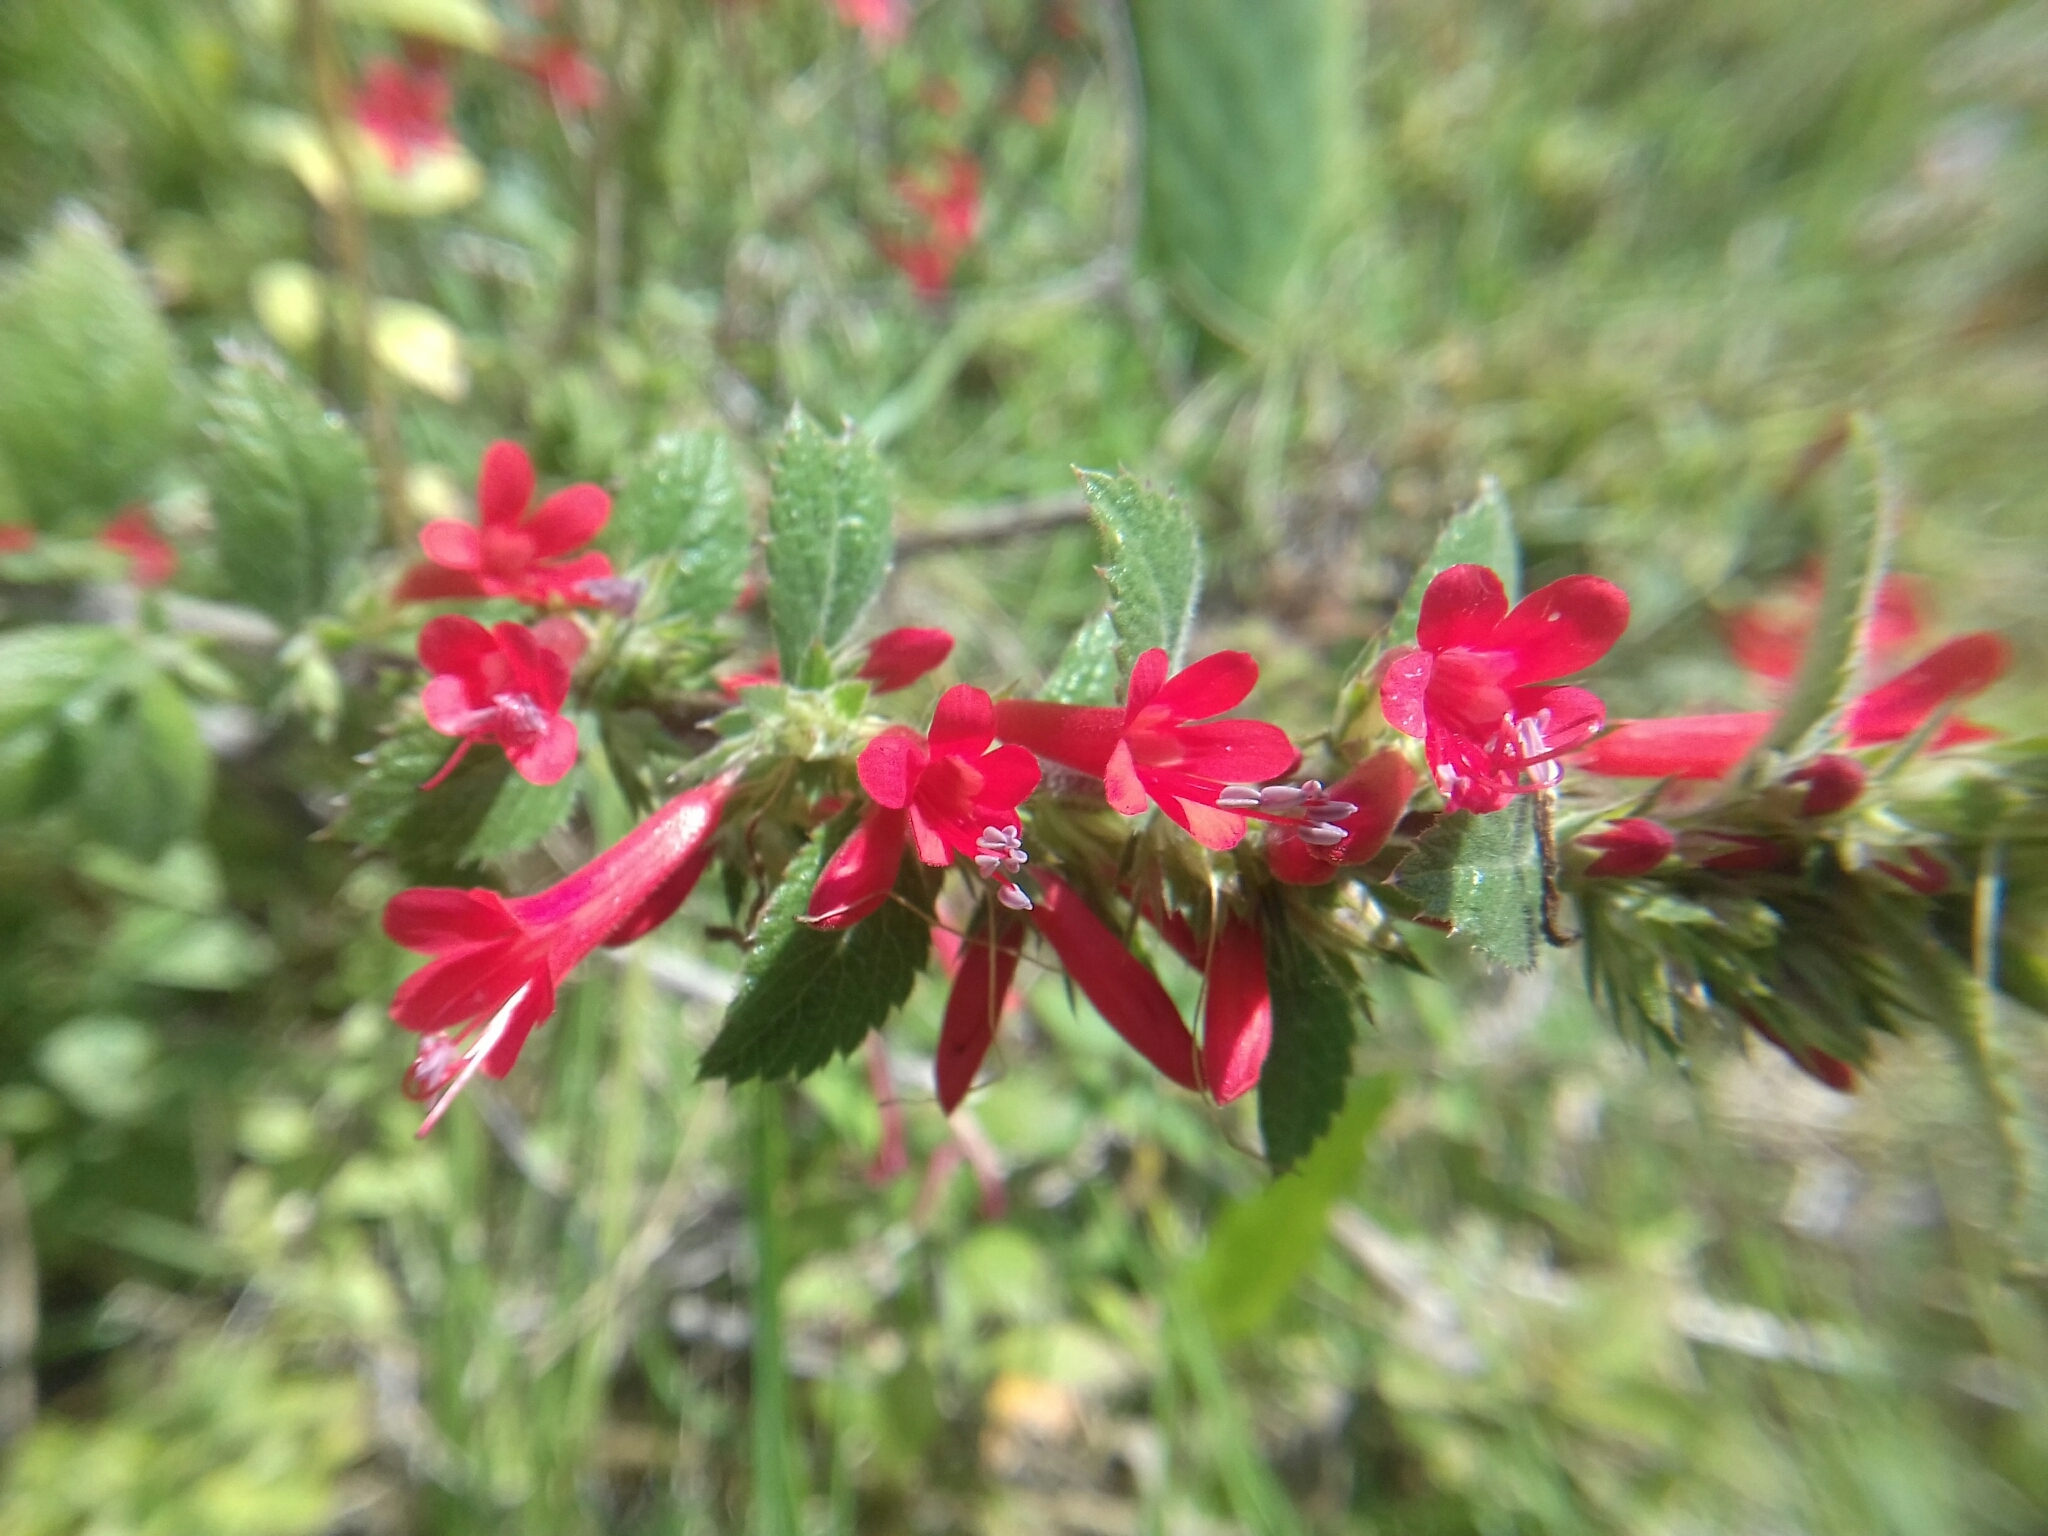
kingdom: Plantae
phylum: Tracheophyta
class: Magnoliopsida
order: Ericales
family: Polemoniaceae
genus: Loeselia
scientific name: Loeselia mexicana
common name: Mexican false calico
